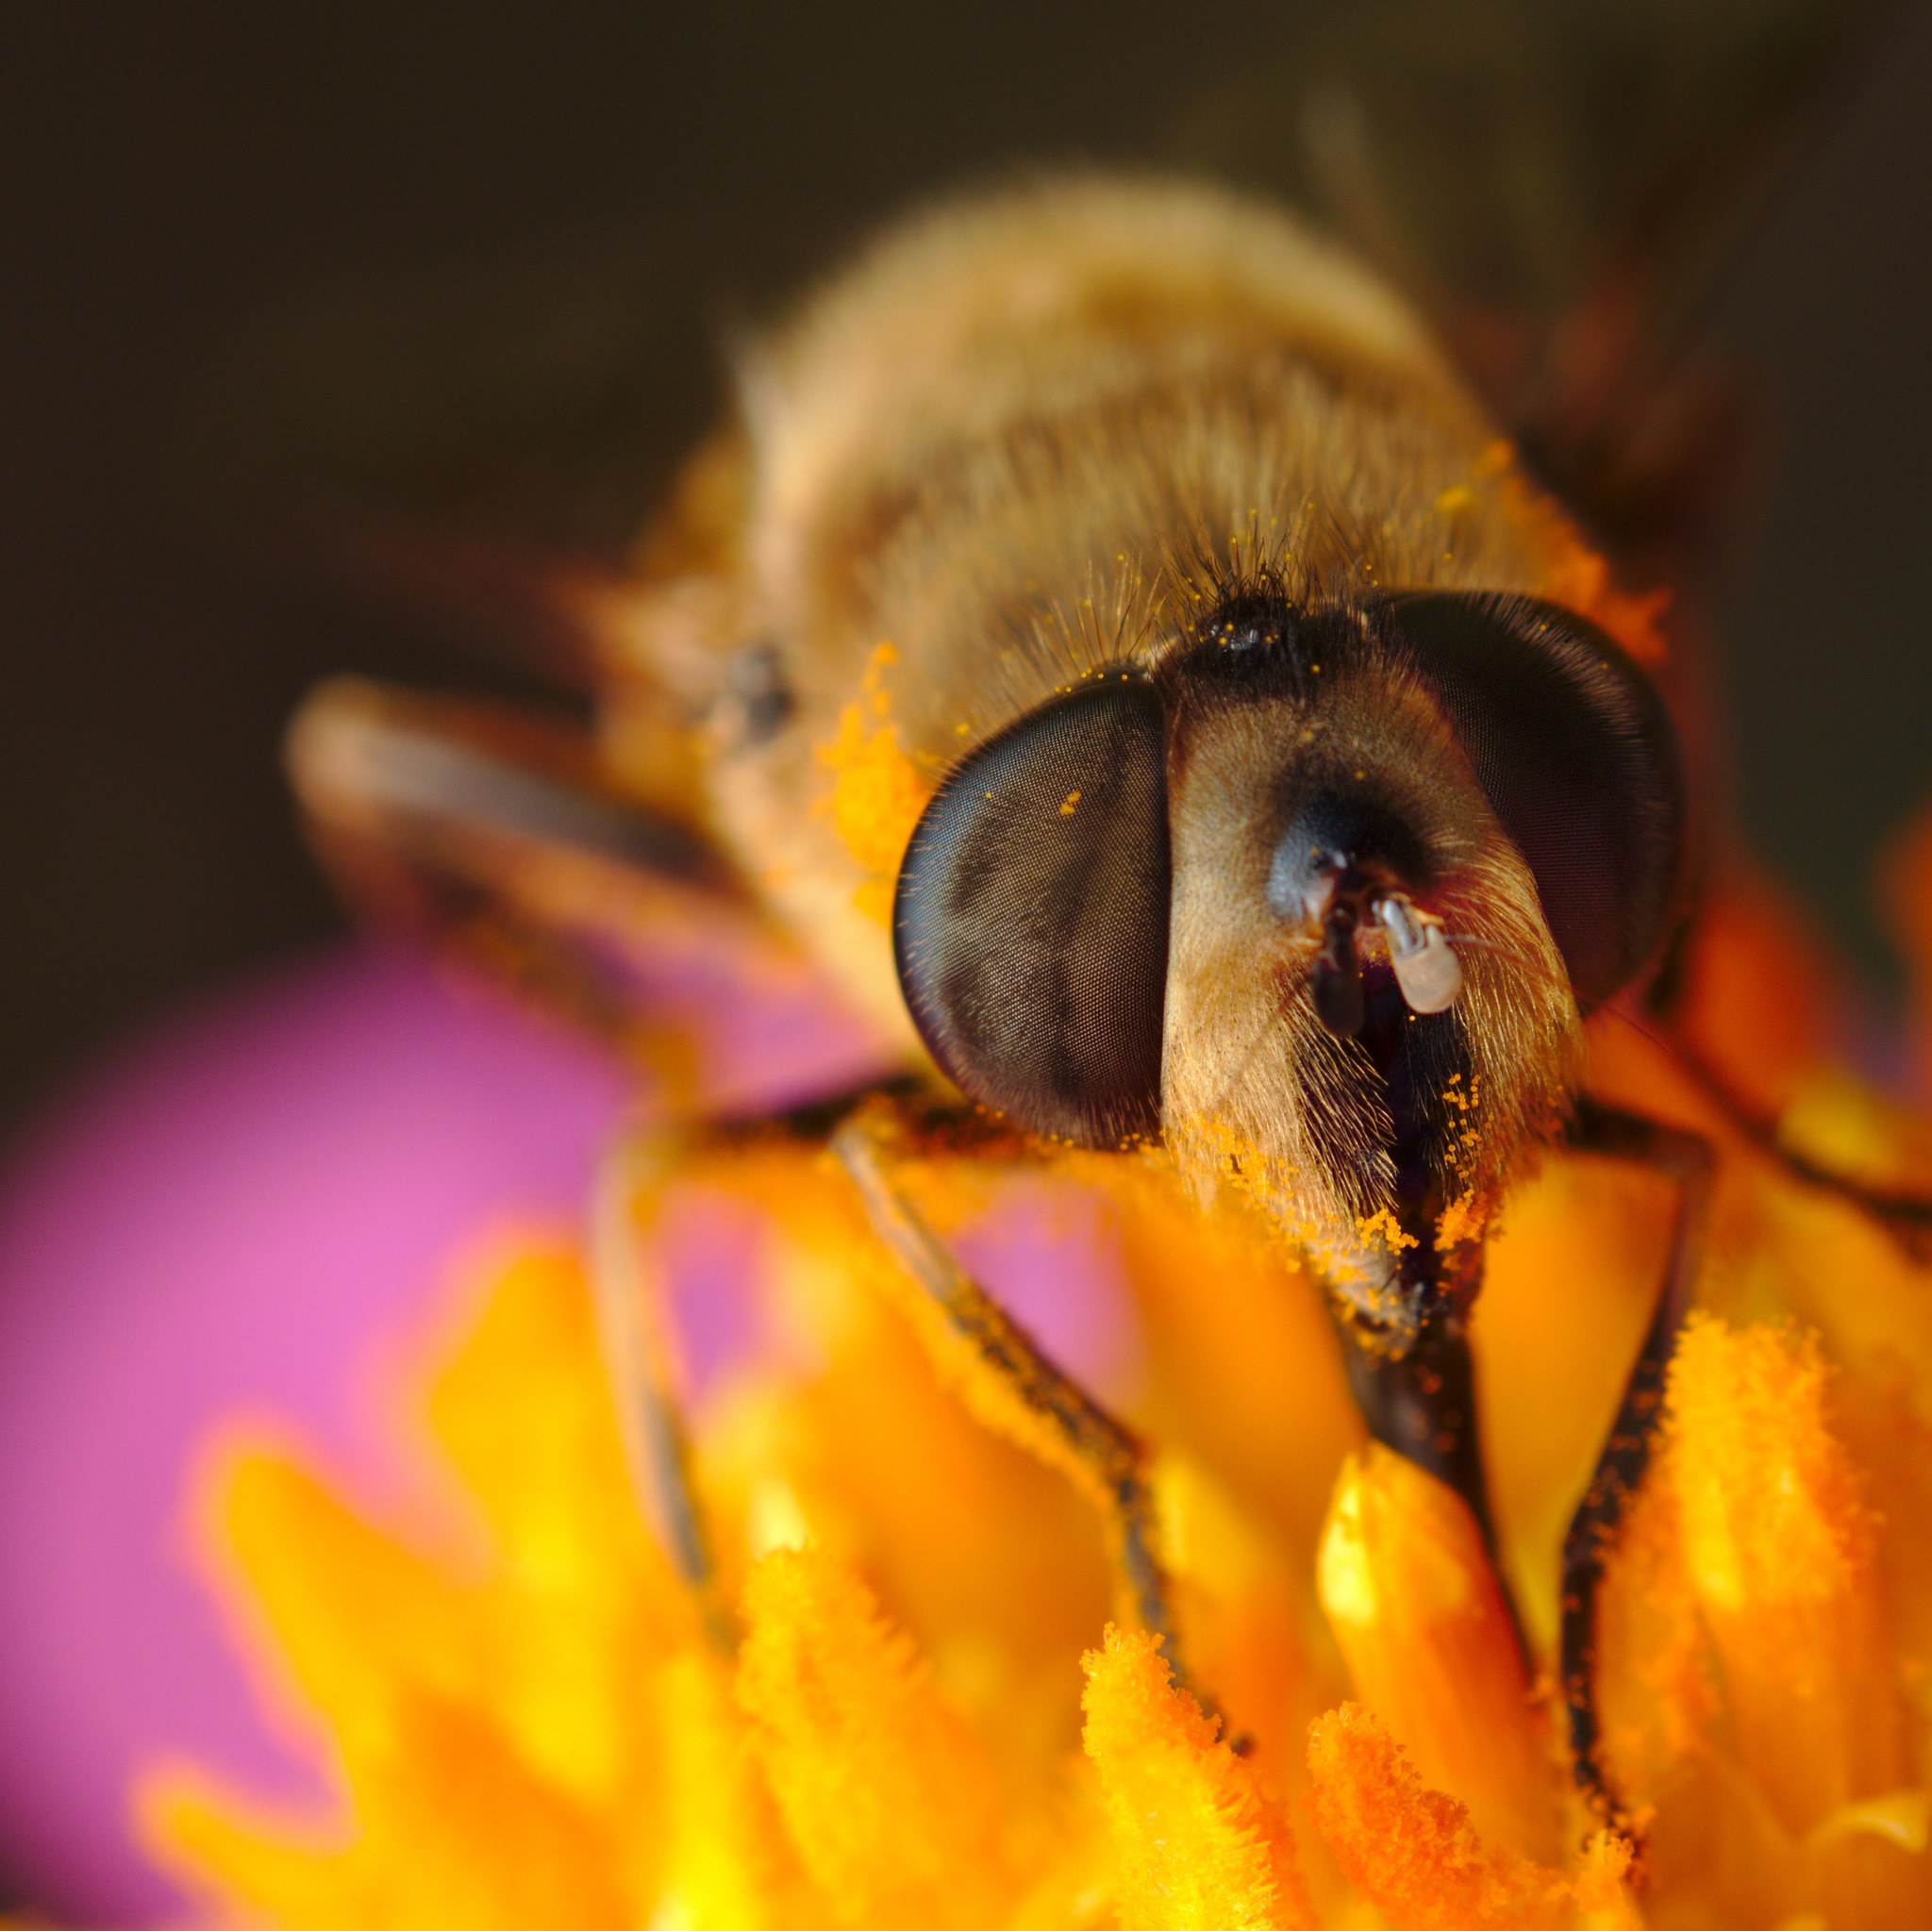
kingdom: Animalia
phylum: Arthropoda
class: Insecta
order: Diptera
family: Syrphidae
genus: Eristalis
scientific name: Eristalis tenax
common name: Drone fly
